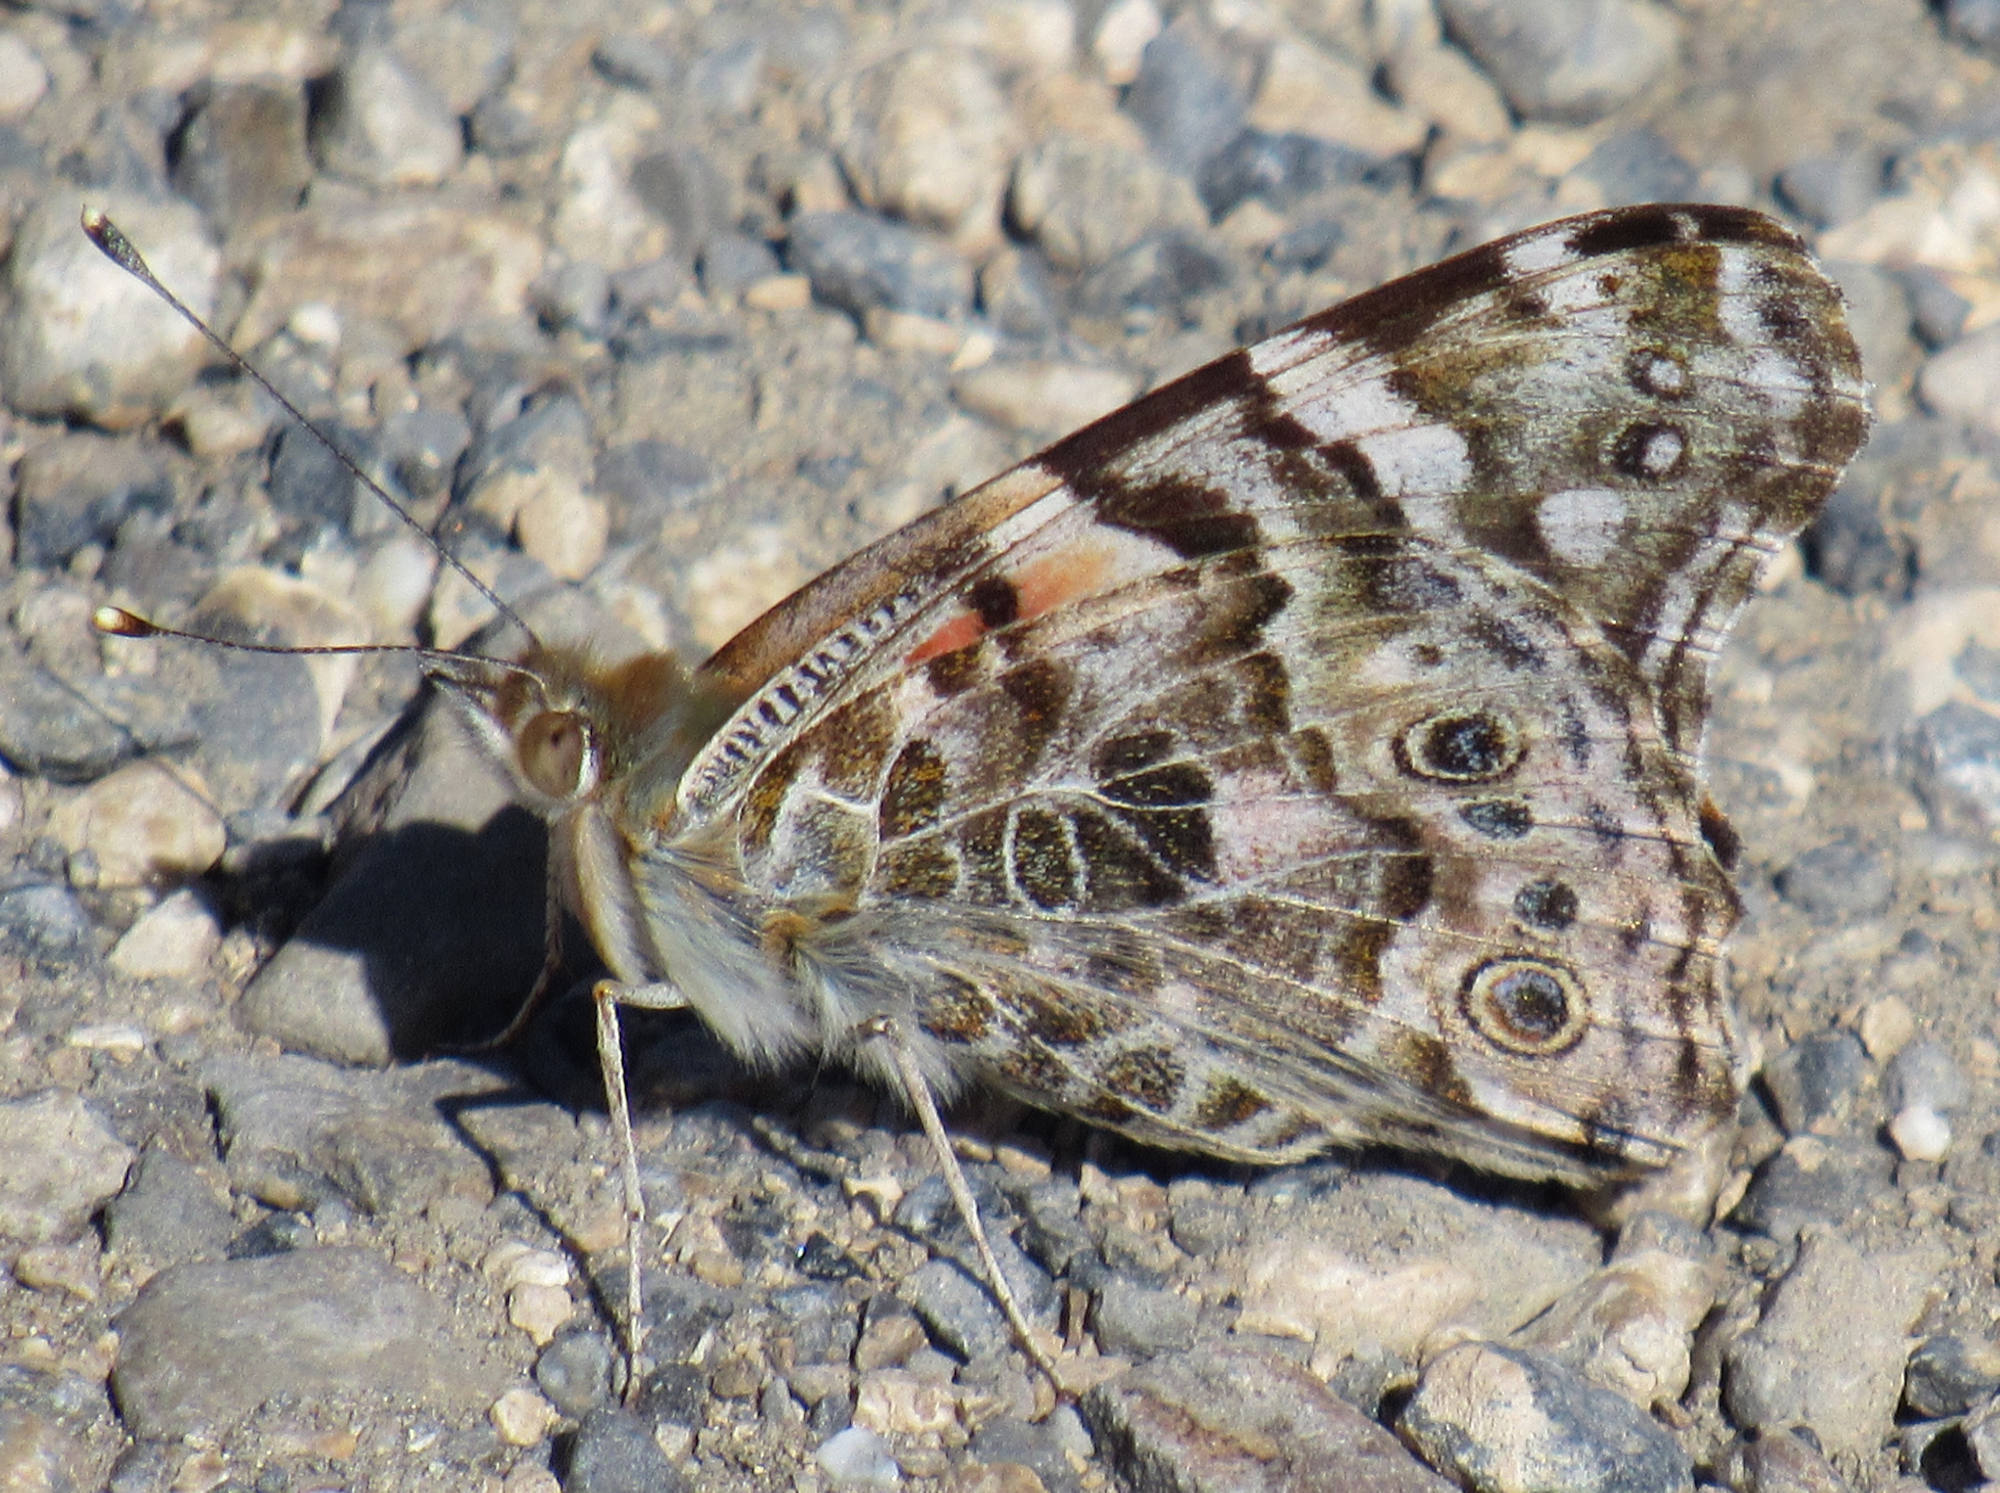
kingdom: Animalia
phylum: Arthropoda
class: Insecta
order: Lepidoptera
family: Nymphalidae
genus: Vanessa
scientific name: Vanessa cardui
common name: Painted lady
